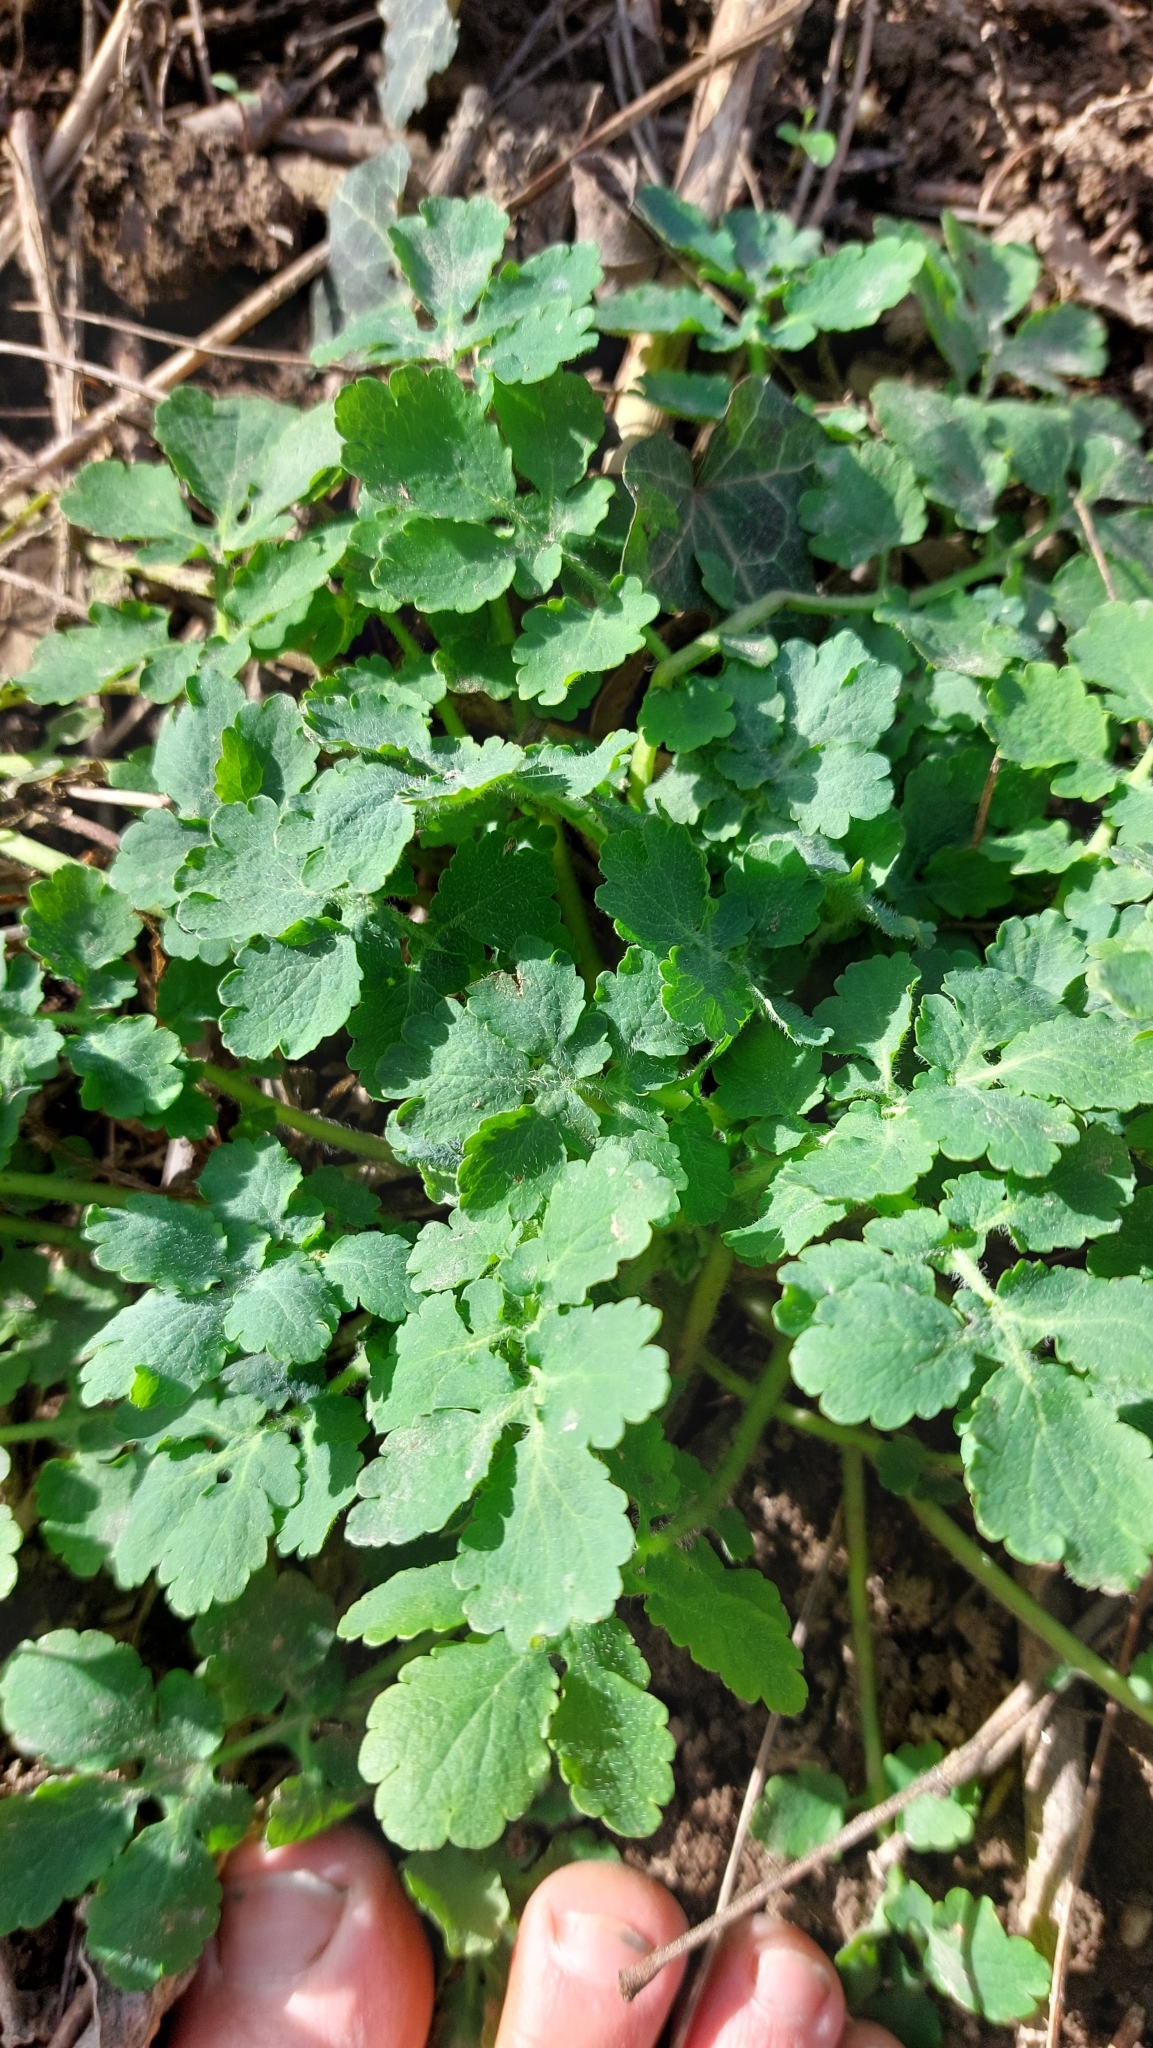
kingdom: Plantae
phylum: Tracheophyta
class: Magnoliopsida
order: Ranunculales
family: Papaveraceae
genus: Chelidonium
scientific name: Chelidonium majus
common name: Greater celandine
